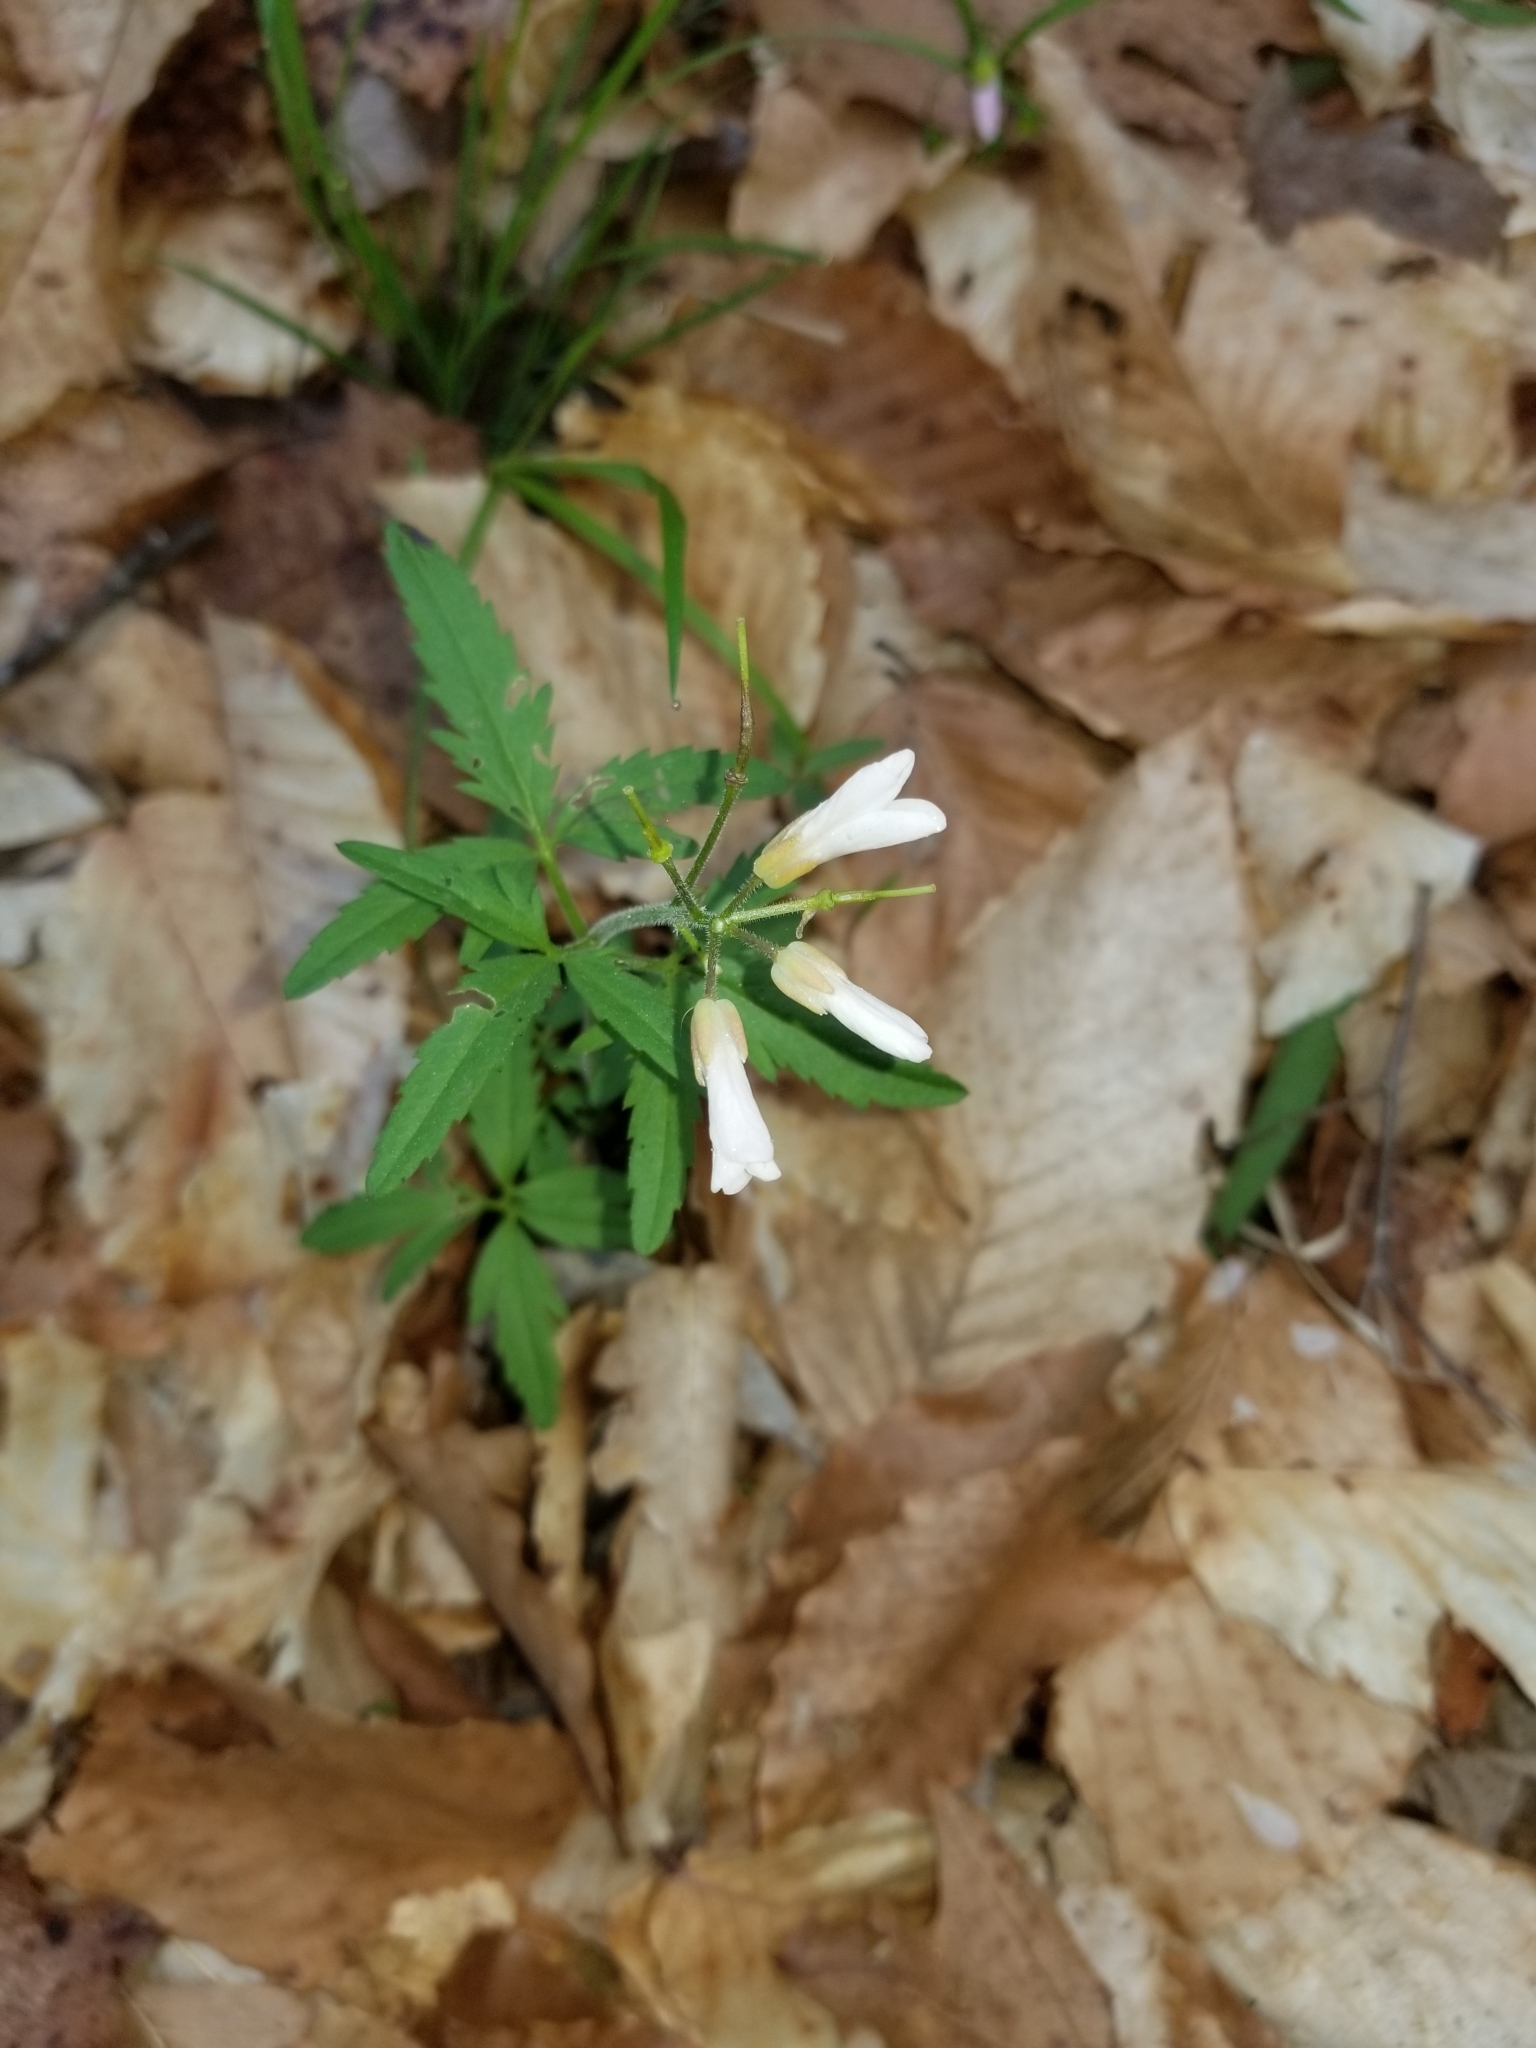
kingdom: Plantae
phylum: Tracheophyta
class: Magnoliopsida
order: Brassicales
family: Brassicaceae
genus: Cardamine
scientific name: Cardamine concatenata
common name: Cut-leaf toothcup
